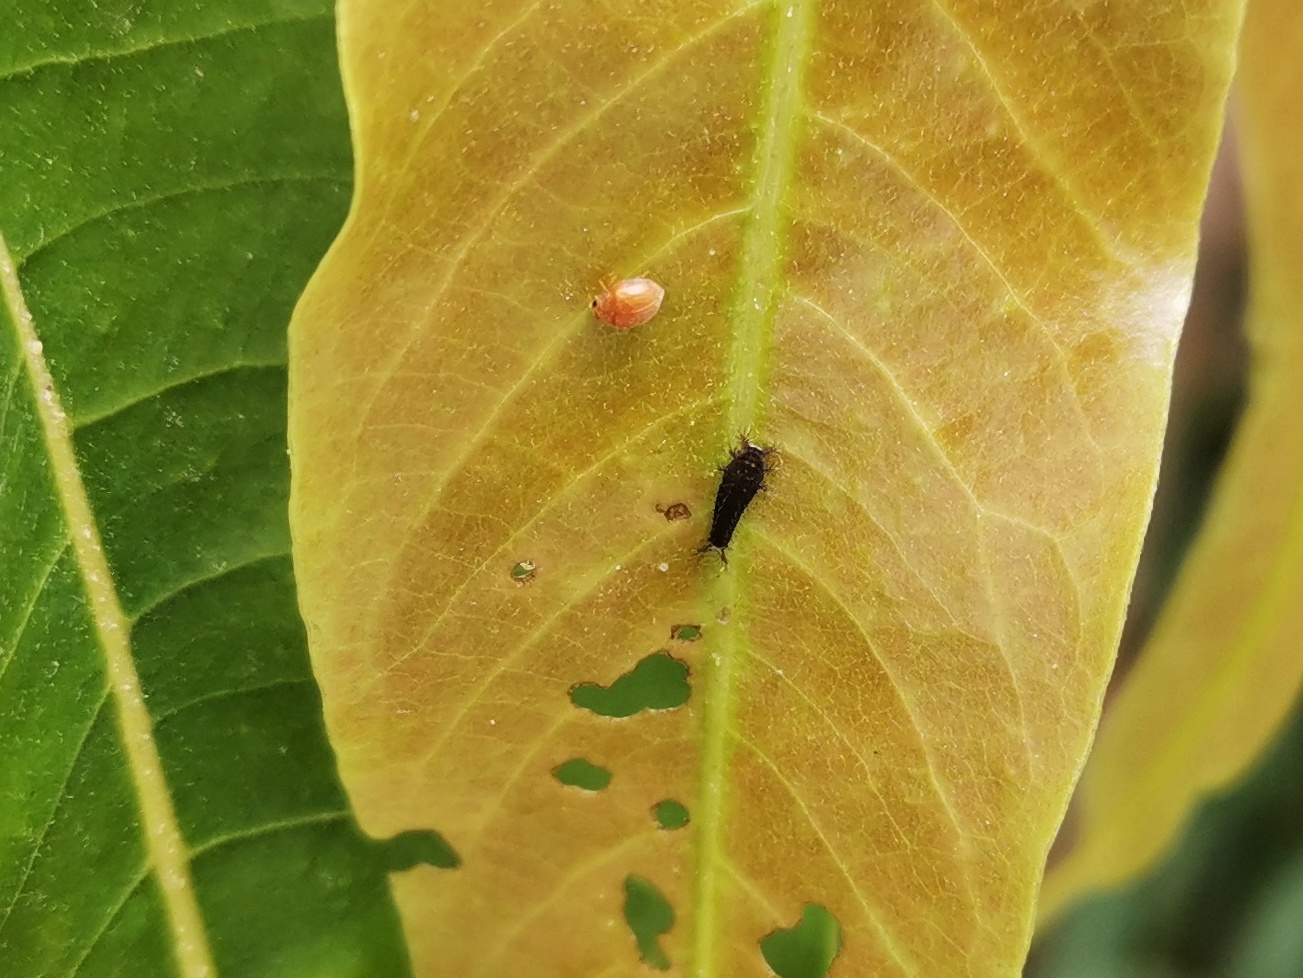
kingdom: Animalia
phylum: Arthropoda
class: Insecta
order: Lepidoptera
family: Papilionidae
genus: Graphium
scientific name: Graphium doson
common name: Common jay
